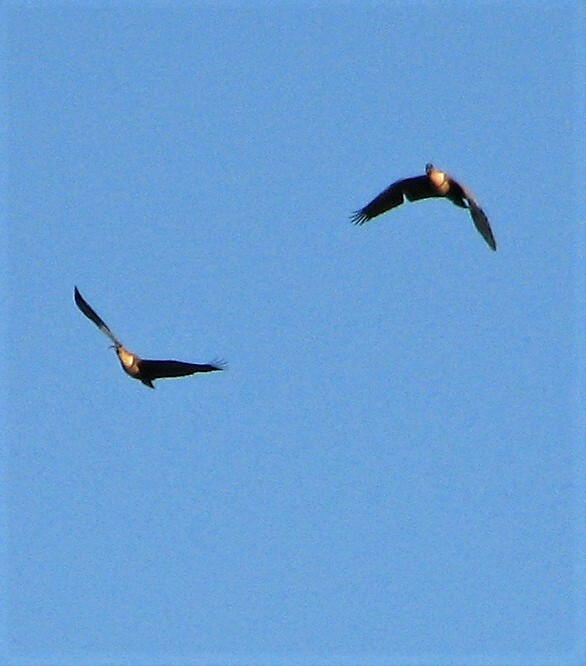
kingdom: Animalia
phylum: Chordata
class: Aves
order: Pelecaniformes
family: Threskiornithidae
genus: Theristicus
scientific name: Theristicus melanopis
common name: Black-faced ibis
